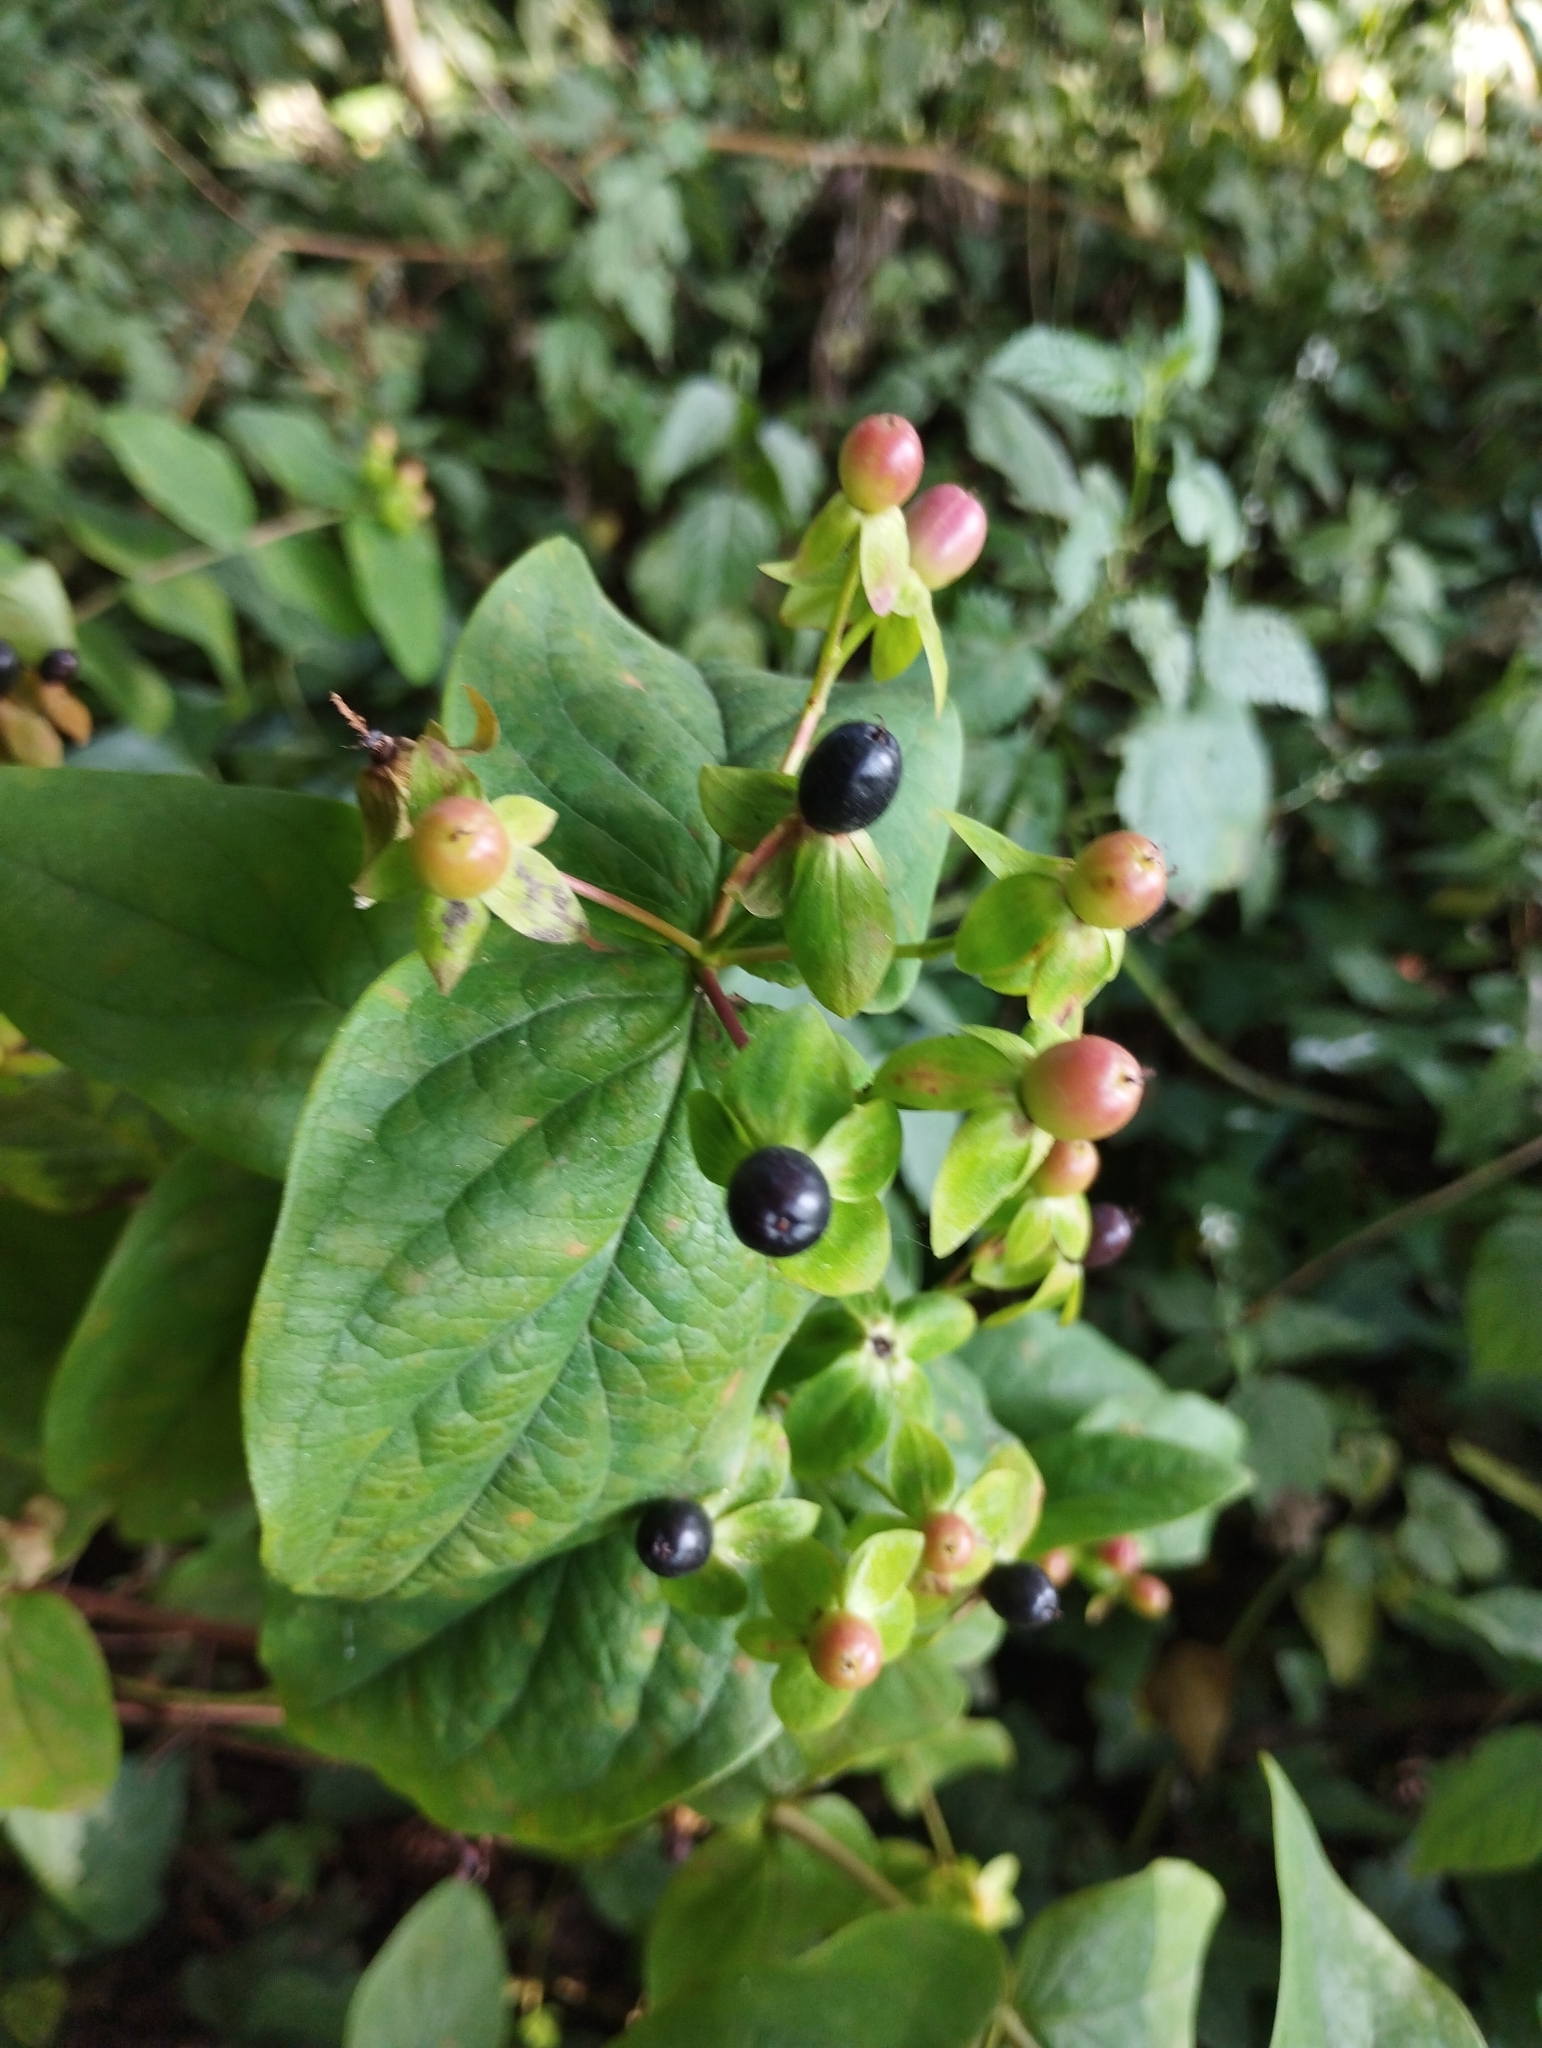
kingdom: Plantae
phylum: Tracheophyta
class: Magnoliopsida
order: Malpighiales
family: Hypericaceae
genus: Hypericum
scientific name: Hypericum androsaemum
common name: Sweet-amber
